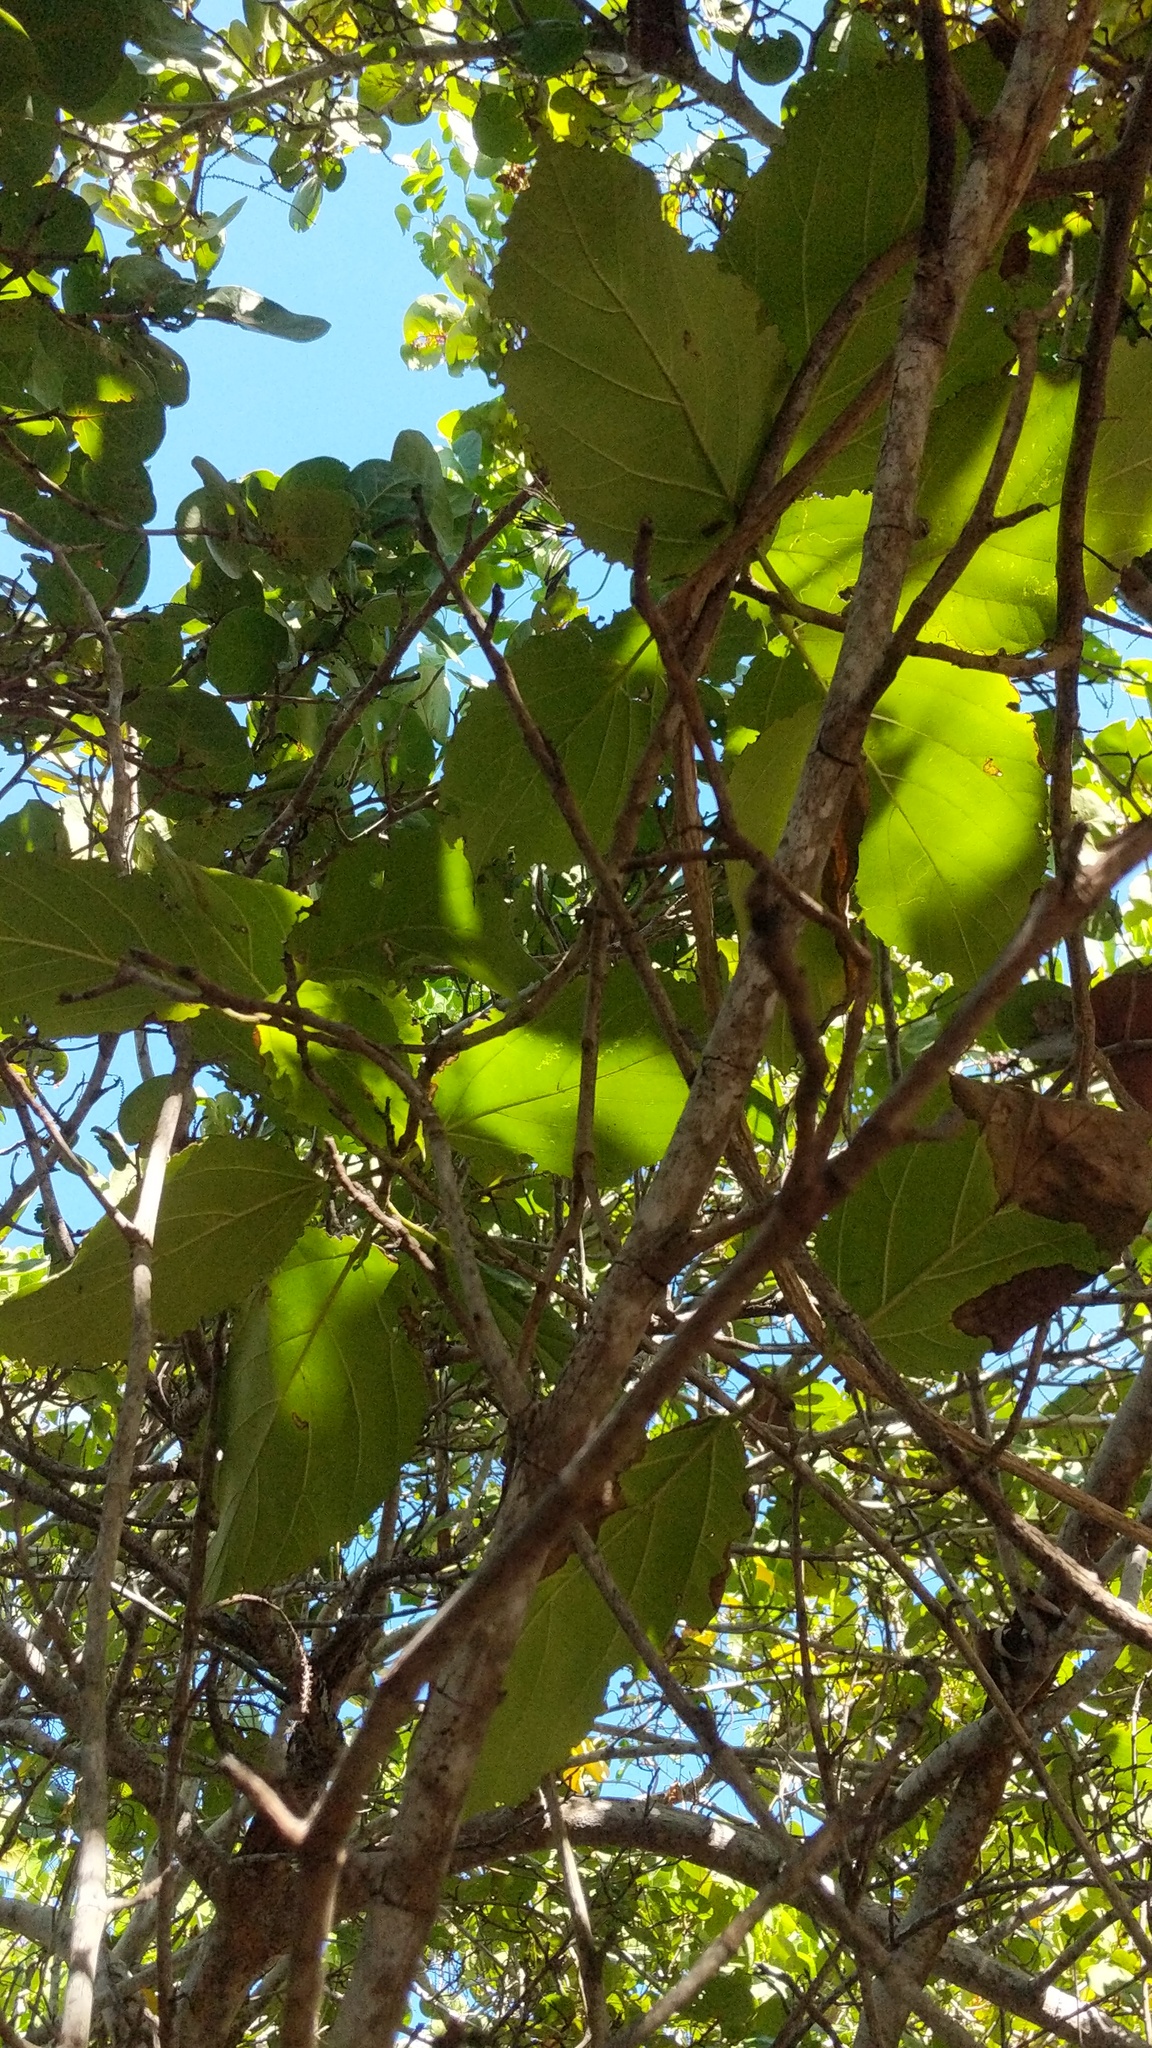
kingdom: Plantae
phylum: Tracheophyta
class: Magnoliopsida
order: Boraginales
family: Cordiaceae
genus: Cordia
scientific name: Cordia sebestena
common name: Largeleaf geigertree
